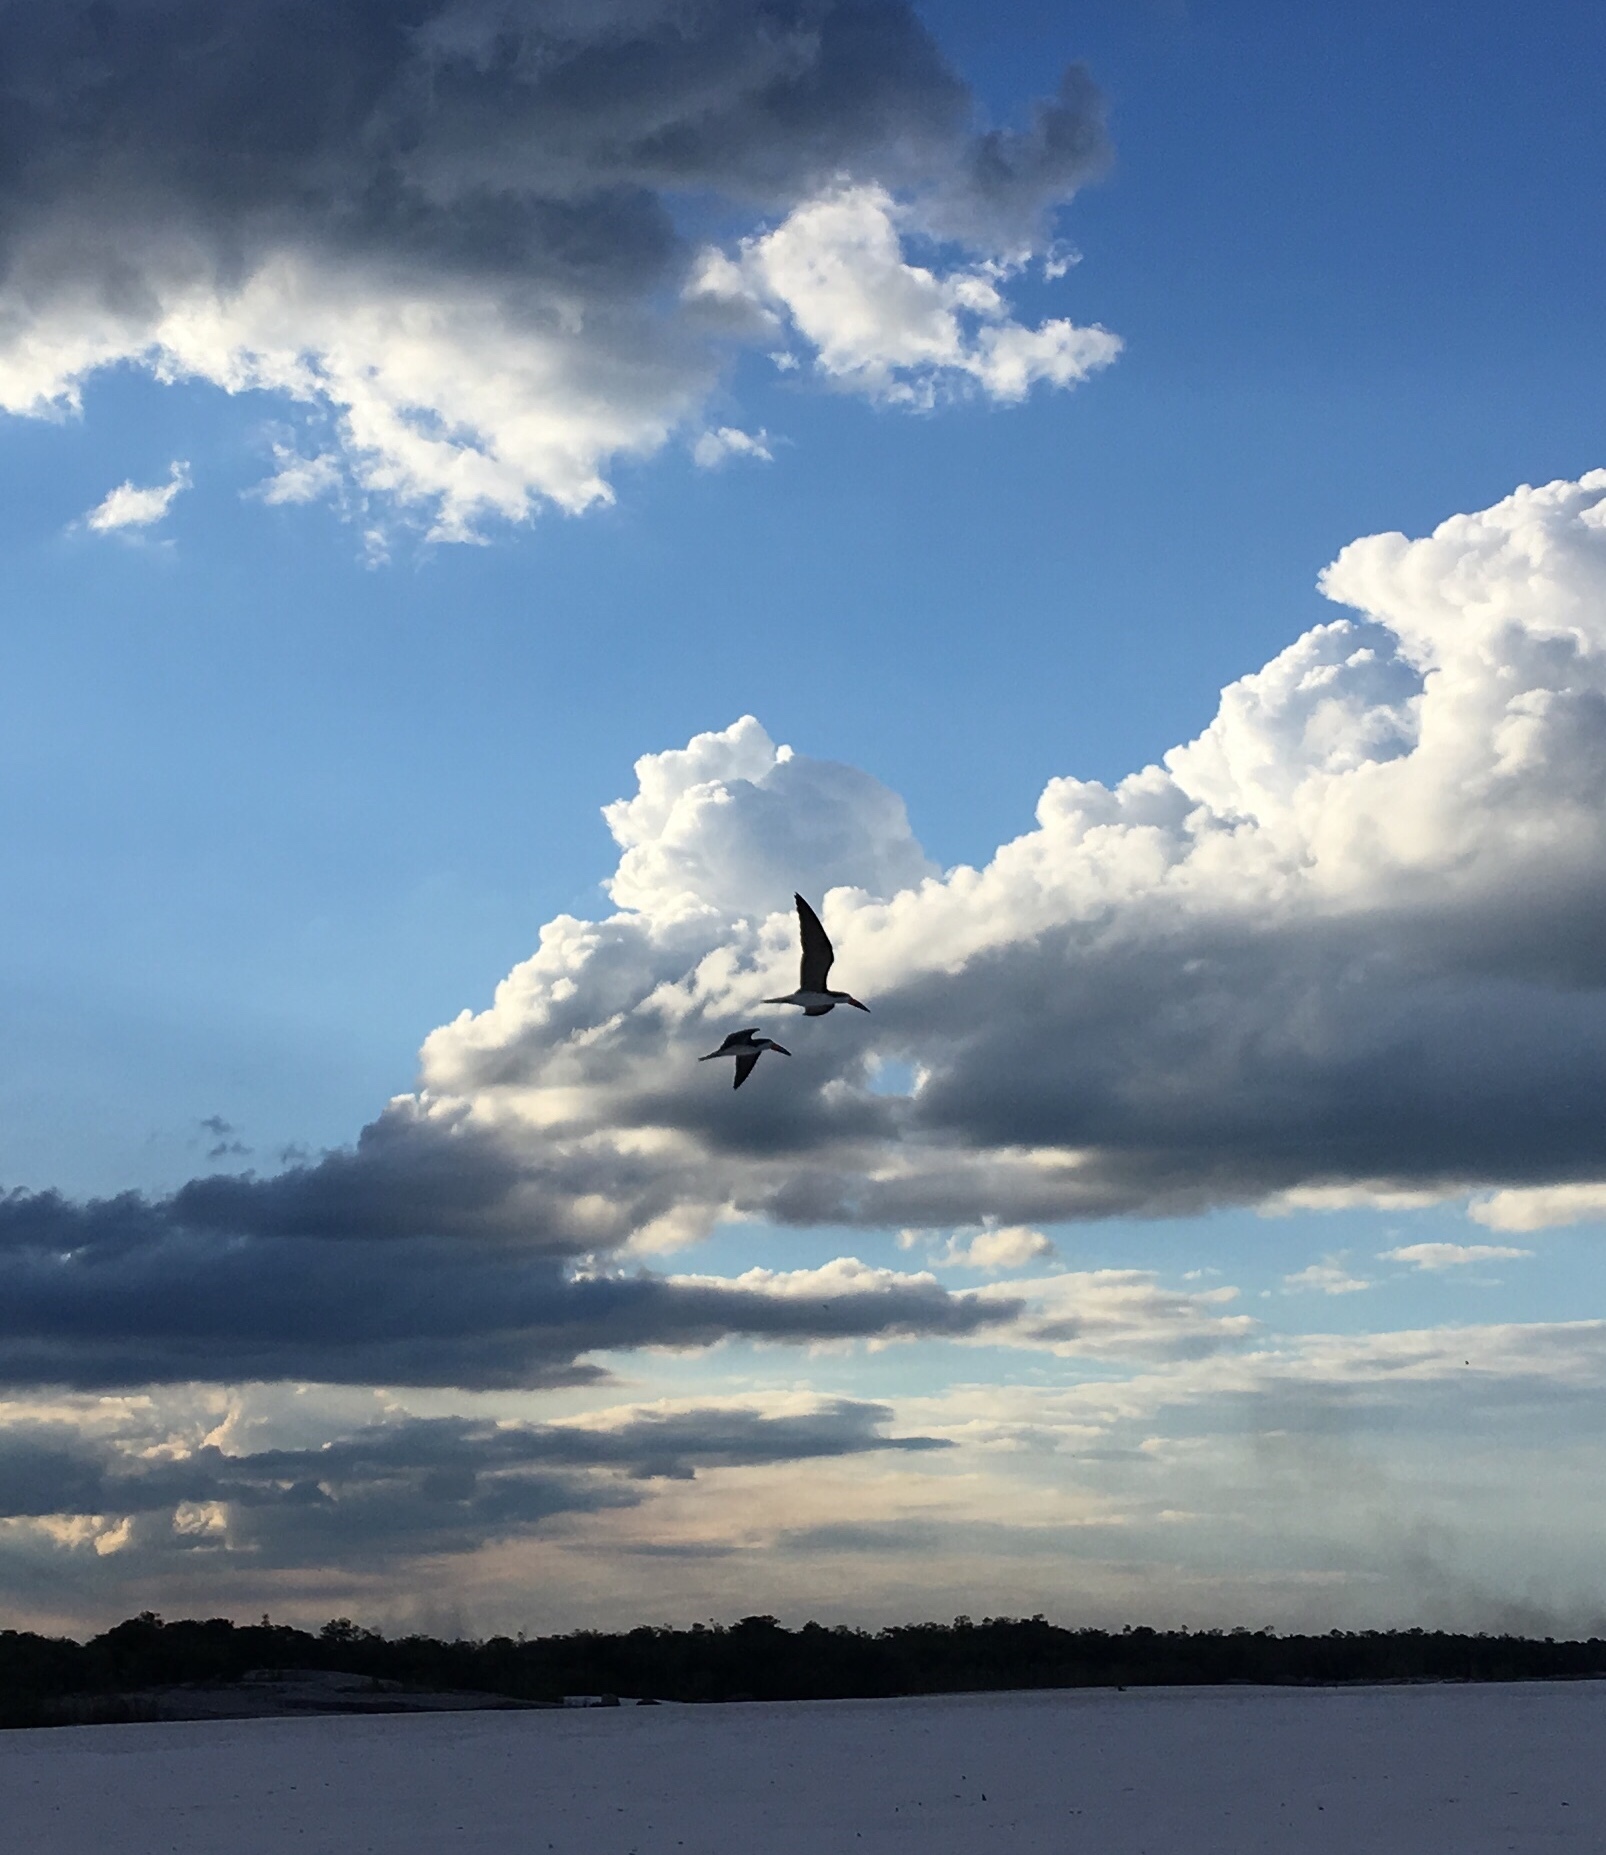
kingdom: Animalia
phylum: Chordata
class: Aves
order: Charadriiformes
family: Laridae
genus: Rynchops
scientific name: Rynchops niger
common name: Black skimmer
